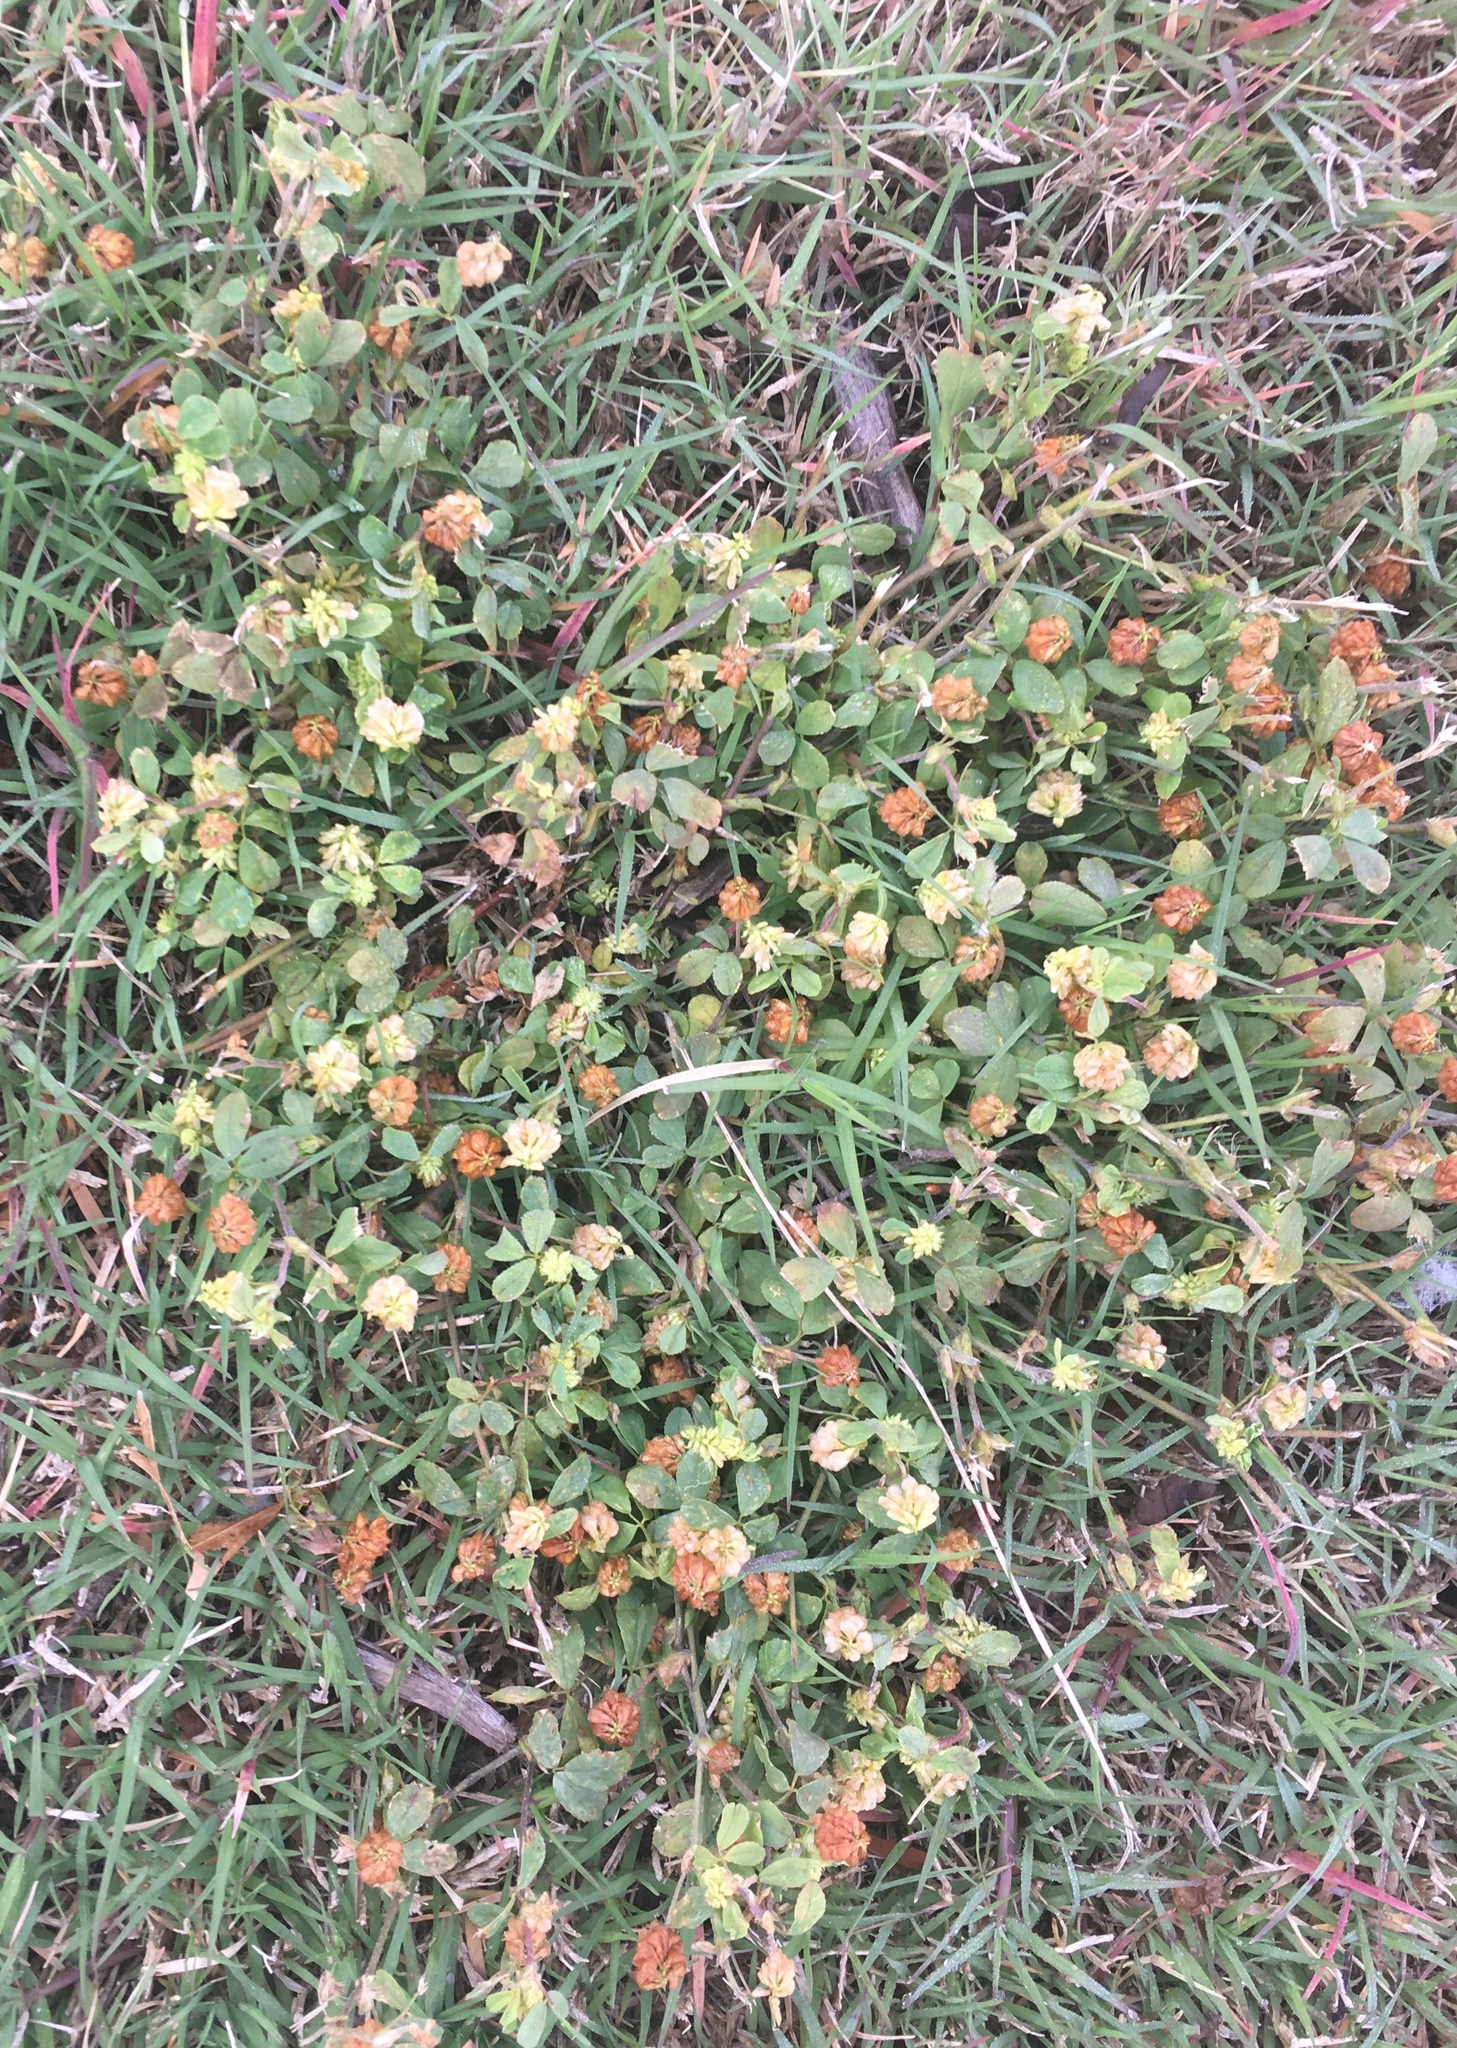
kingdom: Plantae
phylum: Tracheophyta
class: Magnoliopsida
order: Fabales
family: Fabaceae
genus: Trifolium
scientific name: Trifolium campestre
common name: Field clover
